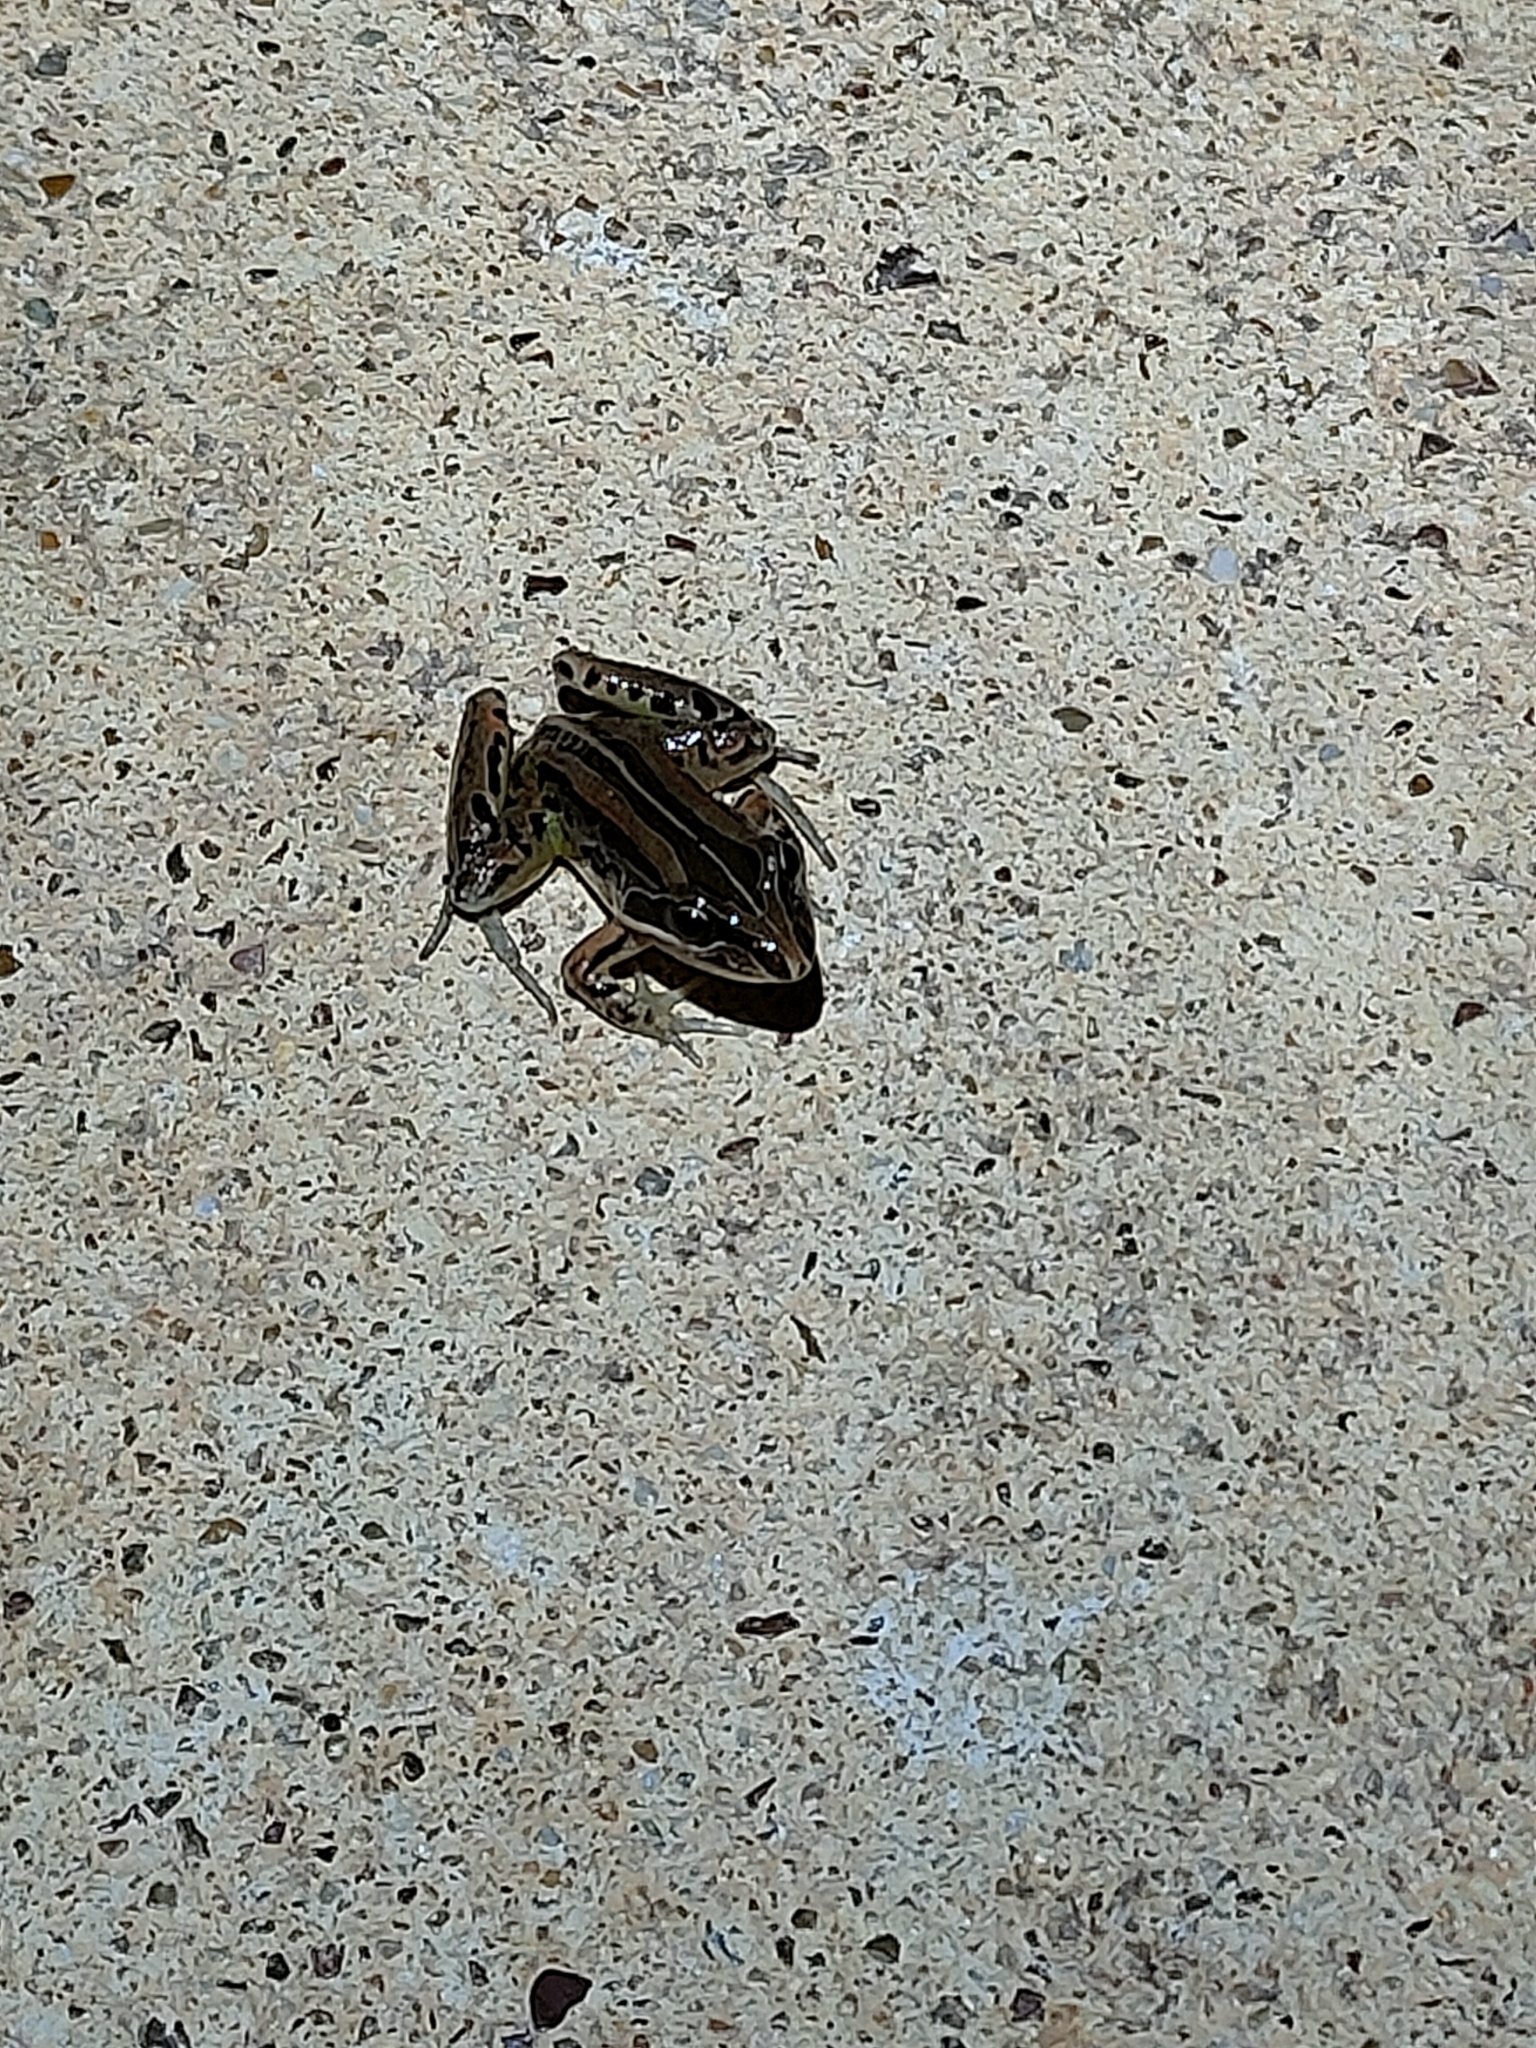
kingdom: Animalia
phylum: Chordata
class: Amphibia
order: Anura
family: Limnodynastidae
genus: Limnodynastes
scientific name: Limnodynastes peronii
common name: Brown frog
